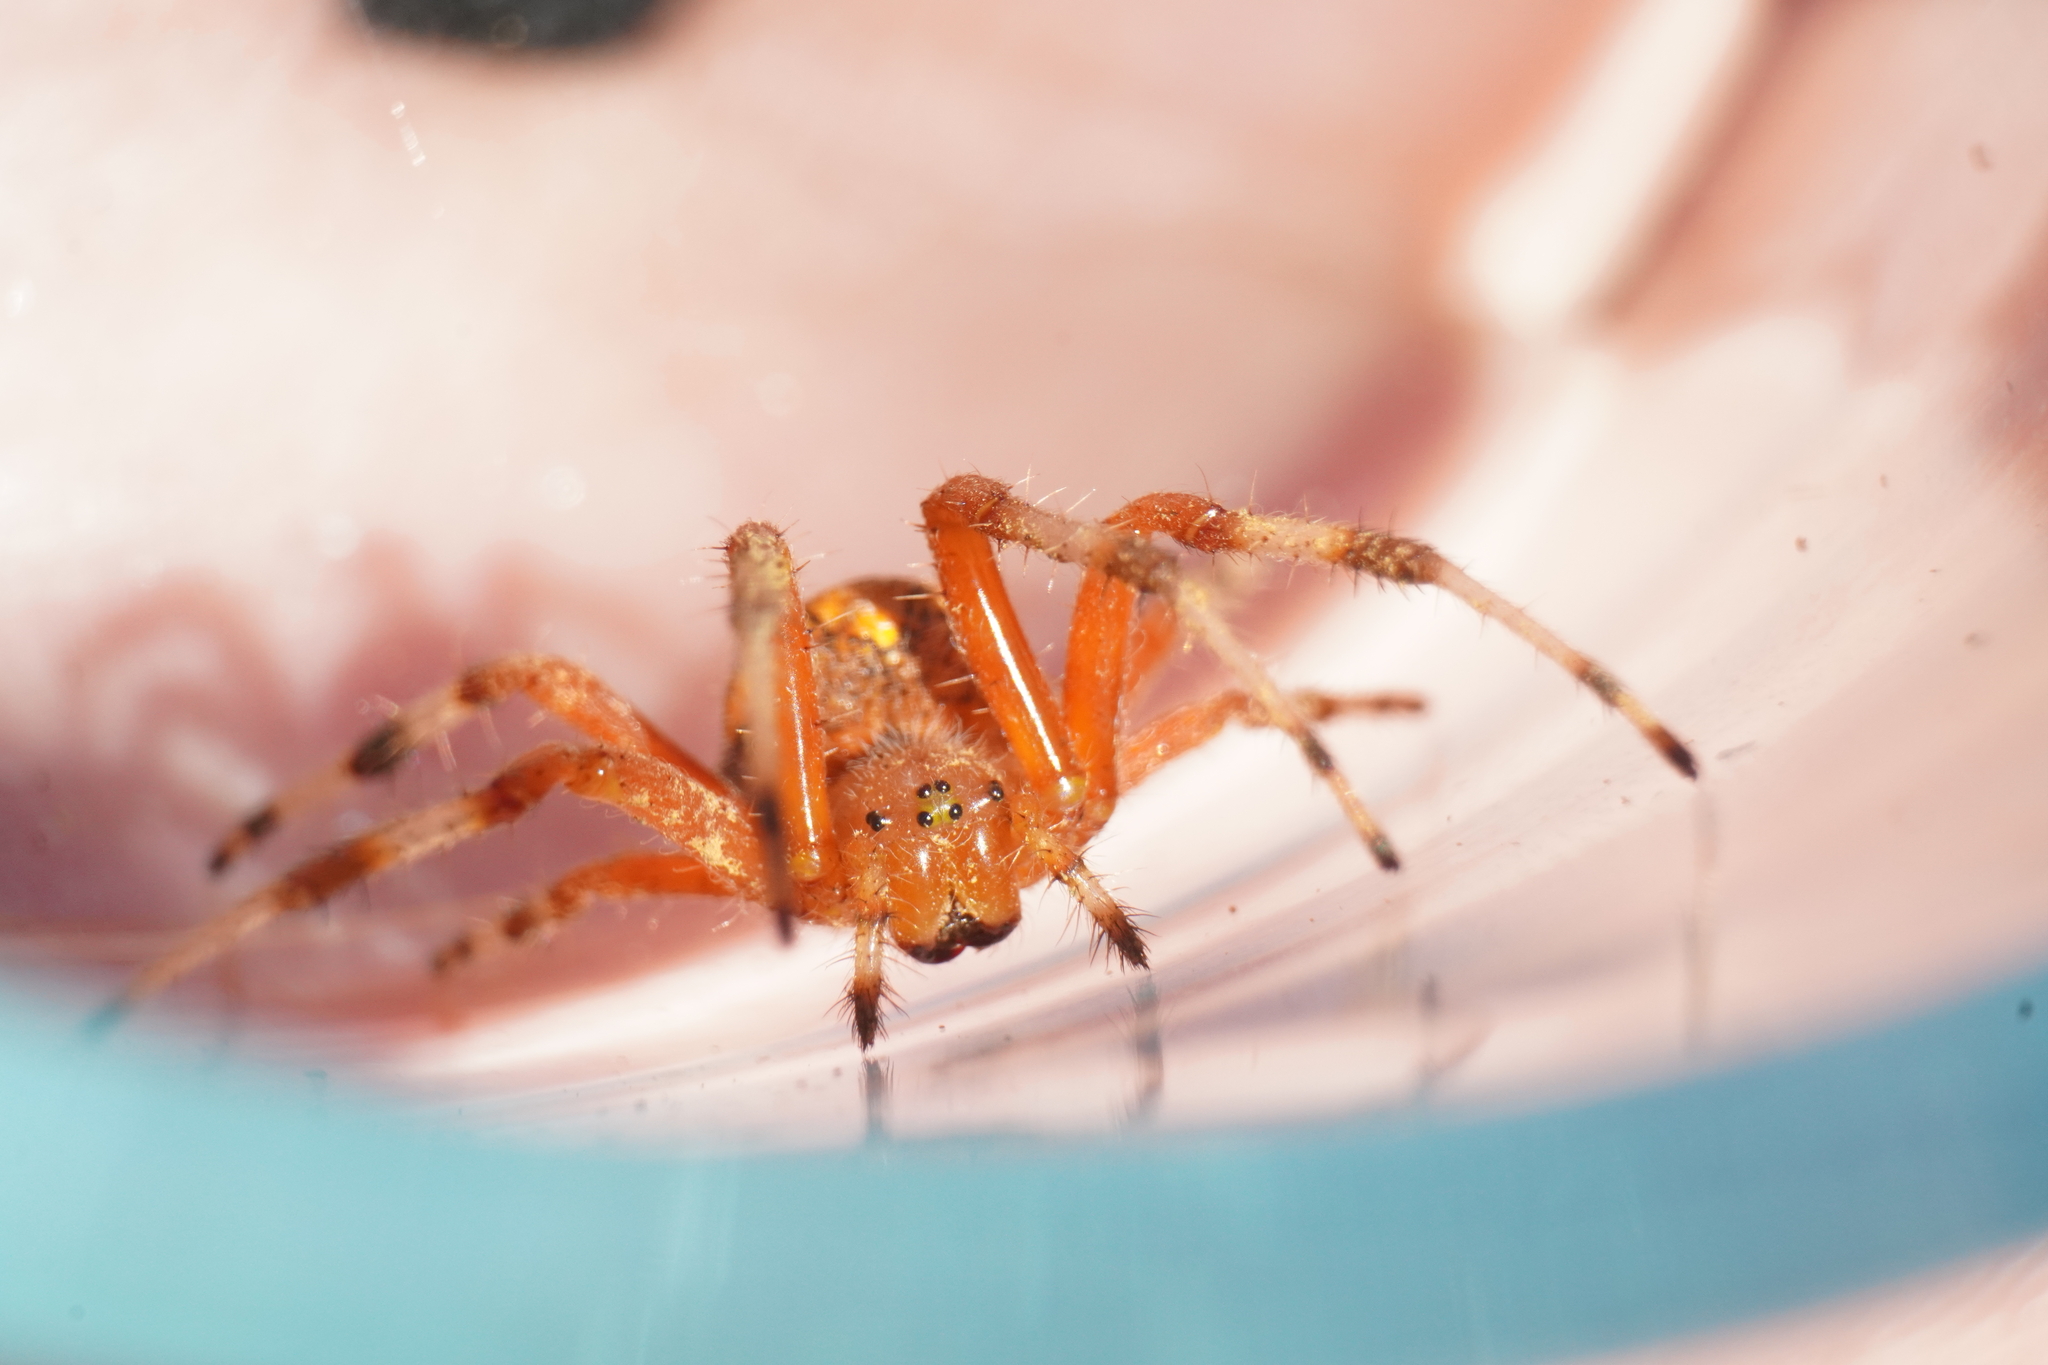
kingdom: Animalia
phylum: Arthropoda
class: Arachnida
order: Araneae
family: Araneidae
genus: Araneus
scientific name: Araneus marmoreus
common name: Marbled orbweaver
